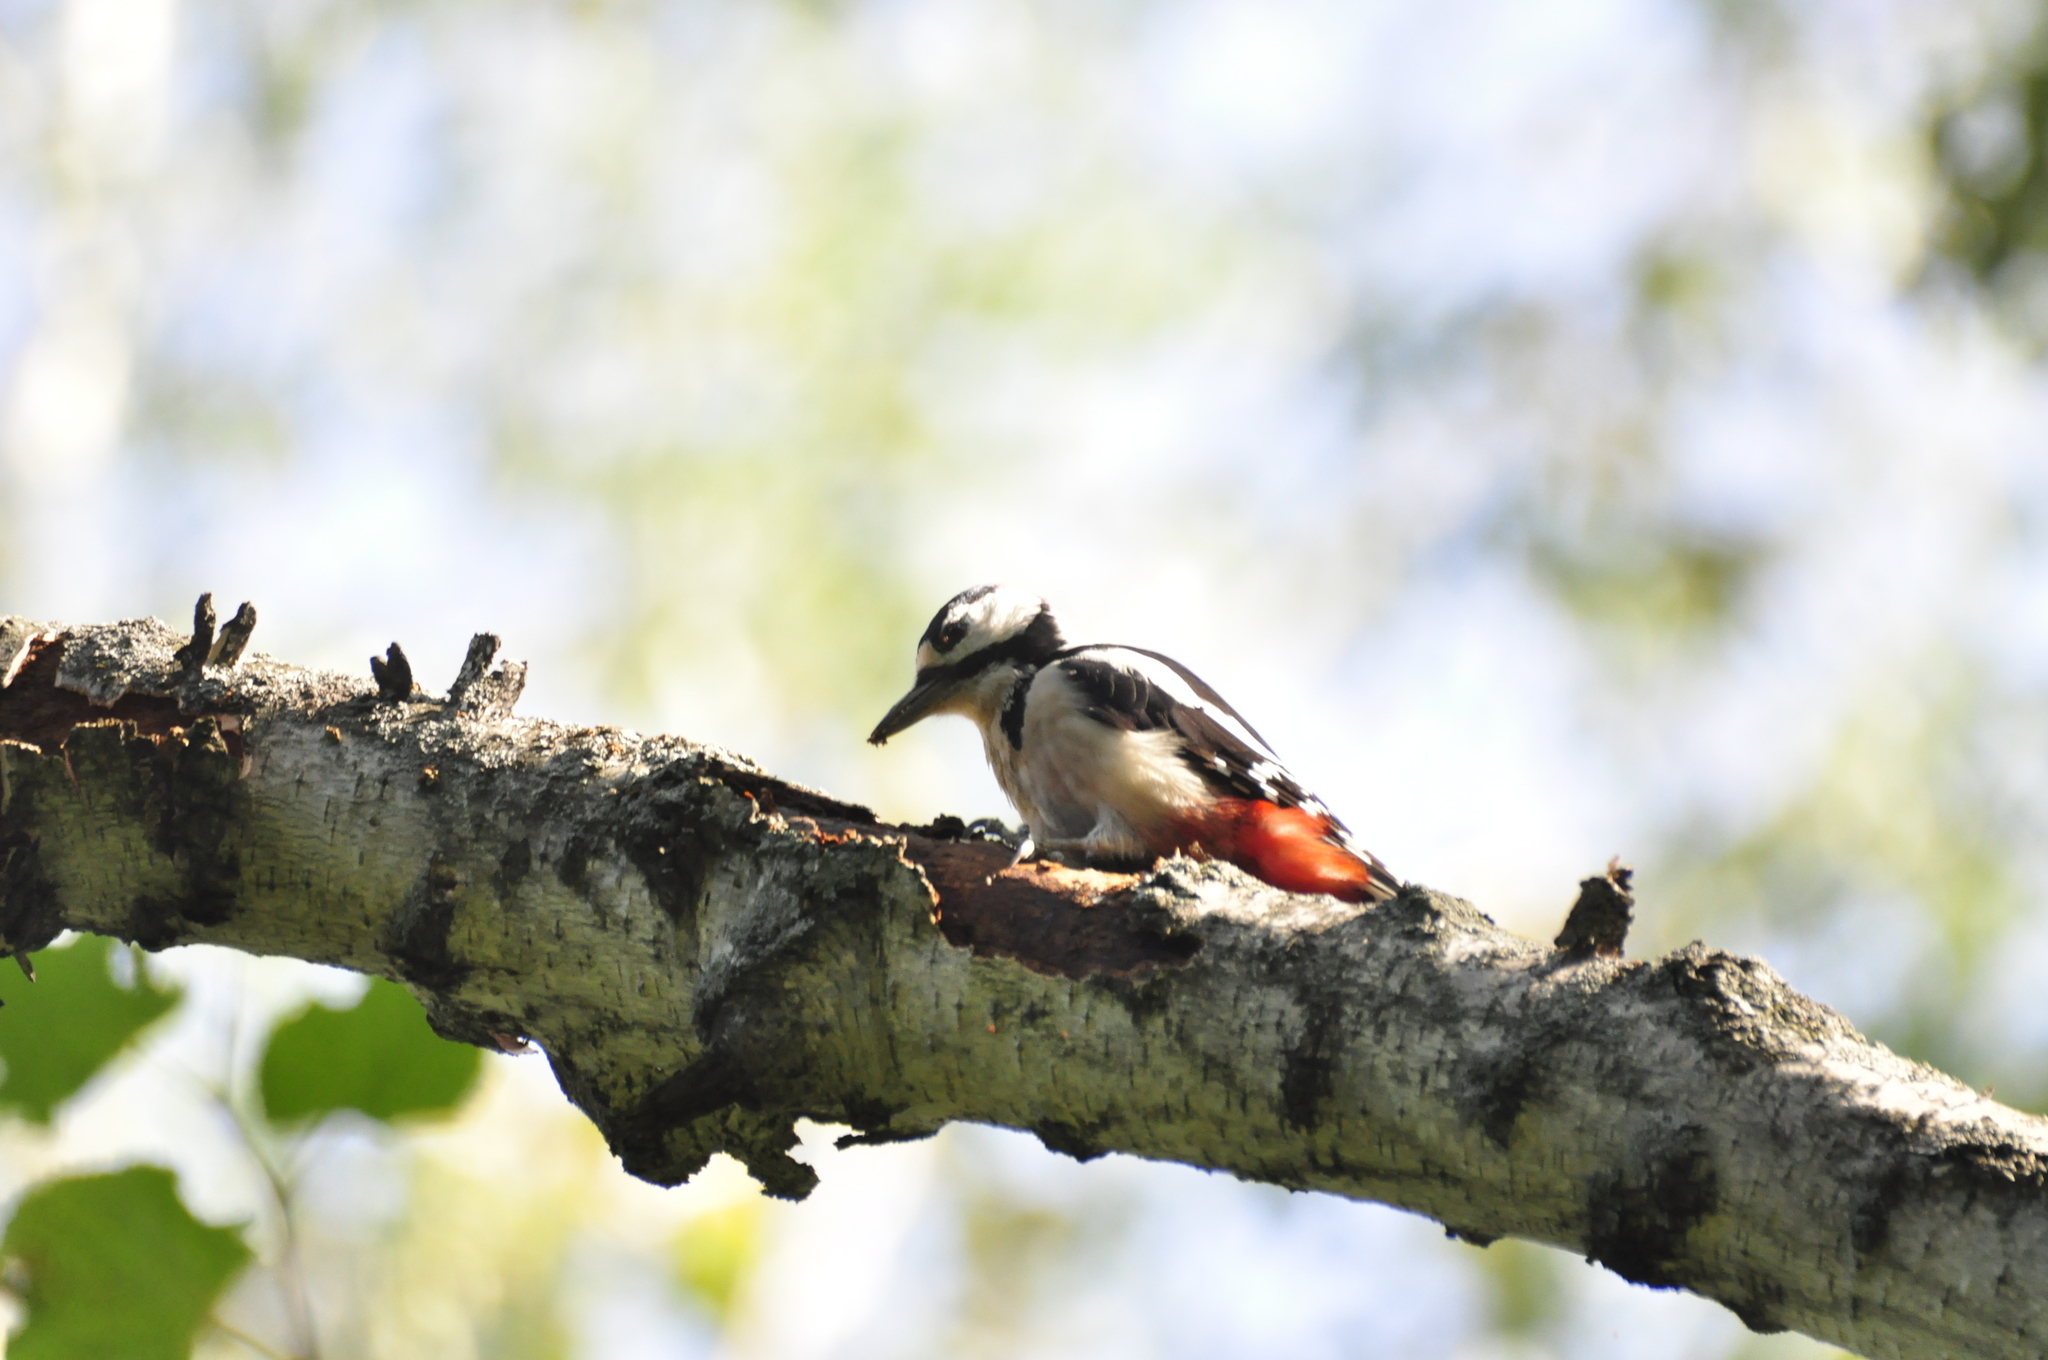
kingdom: Animalia
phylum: Chordata
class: Aves
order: Piciformes
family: Picidae
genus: Dendrocopos
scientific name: Dendrocopos major
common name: Great spotted woodpecker
